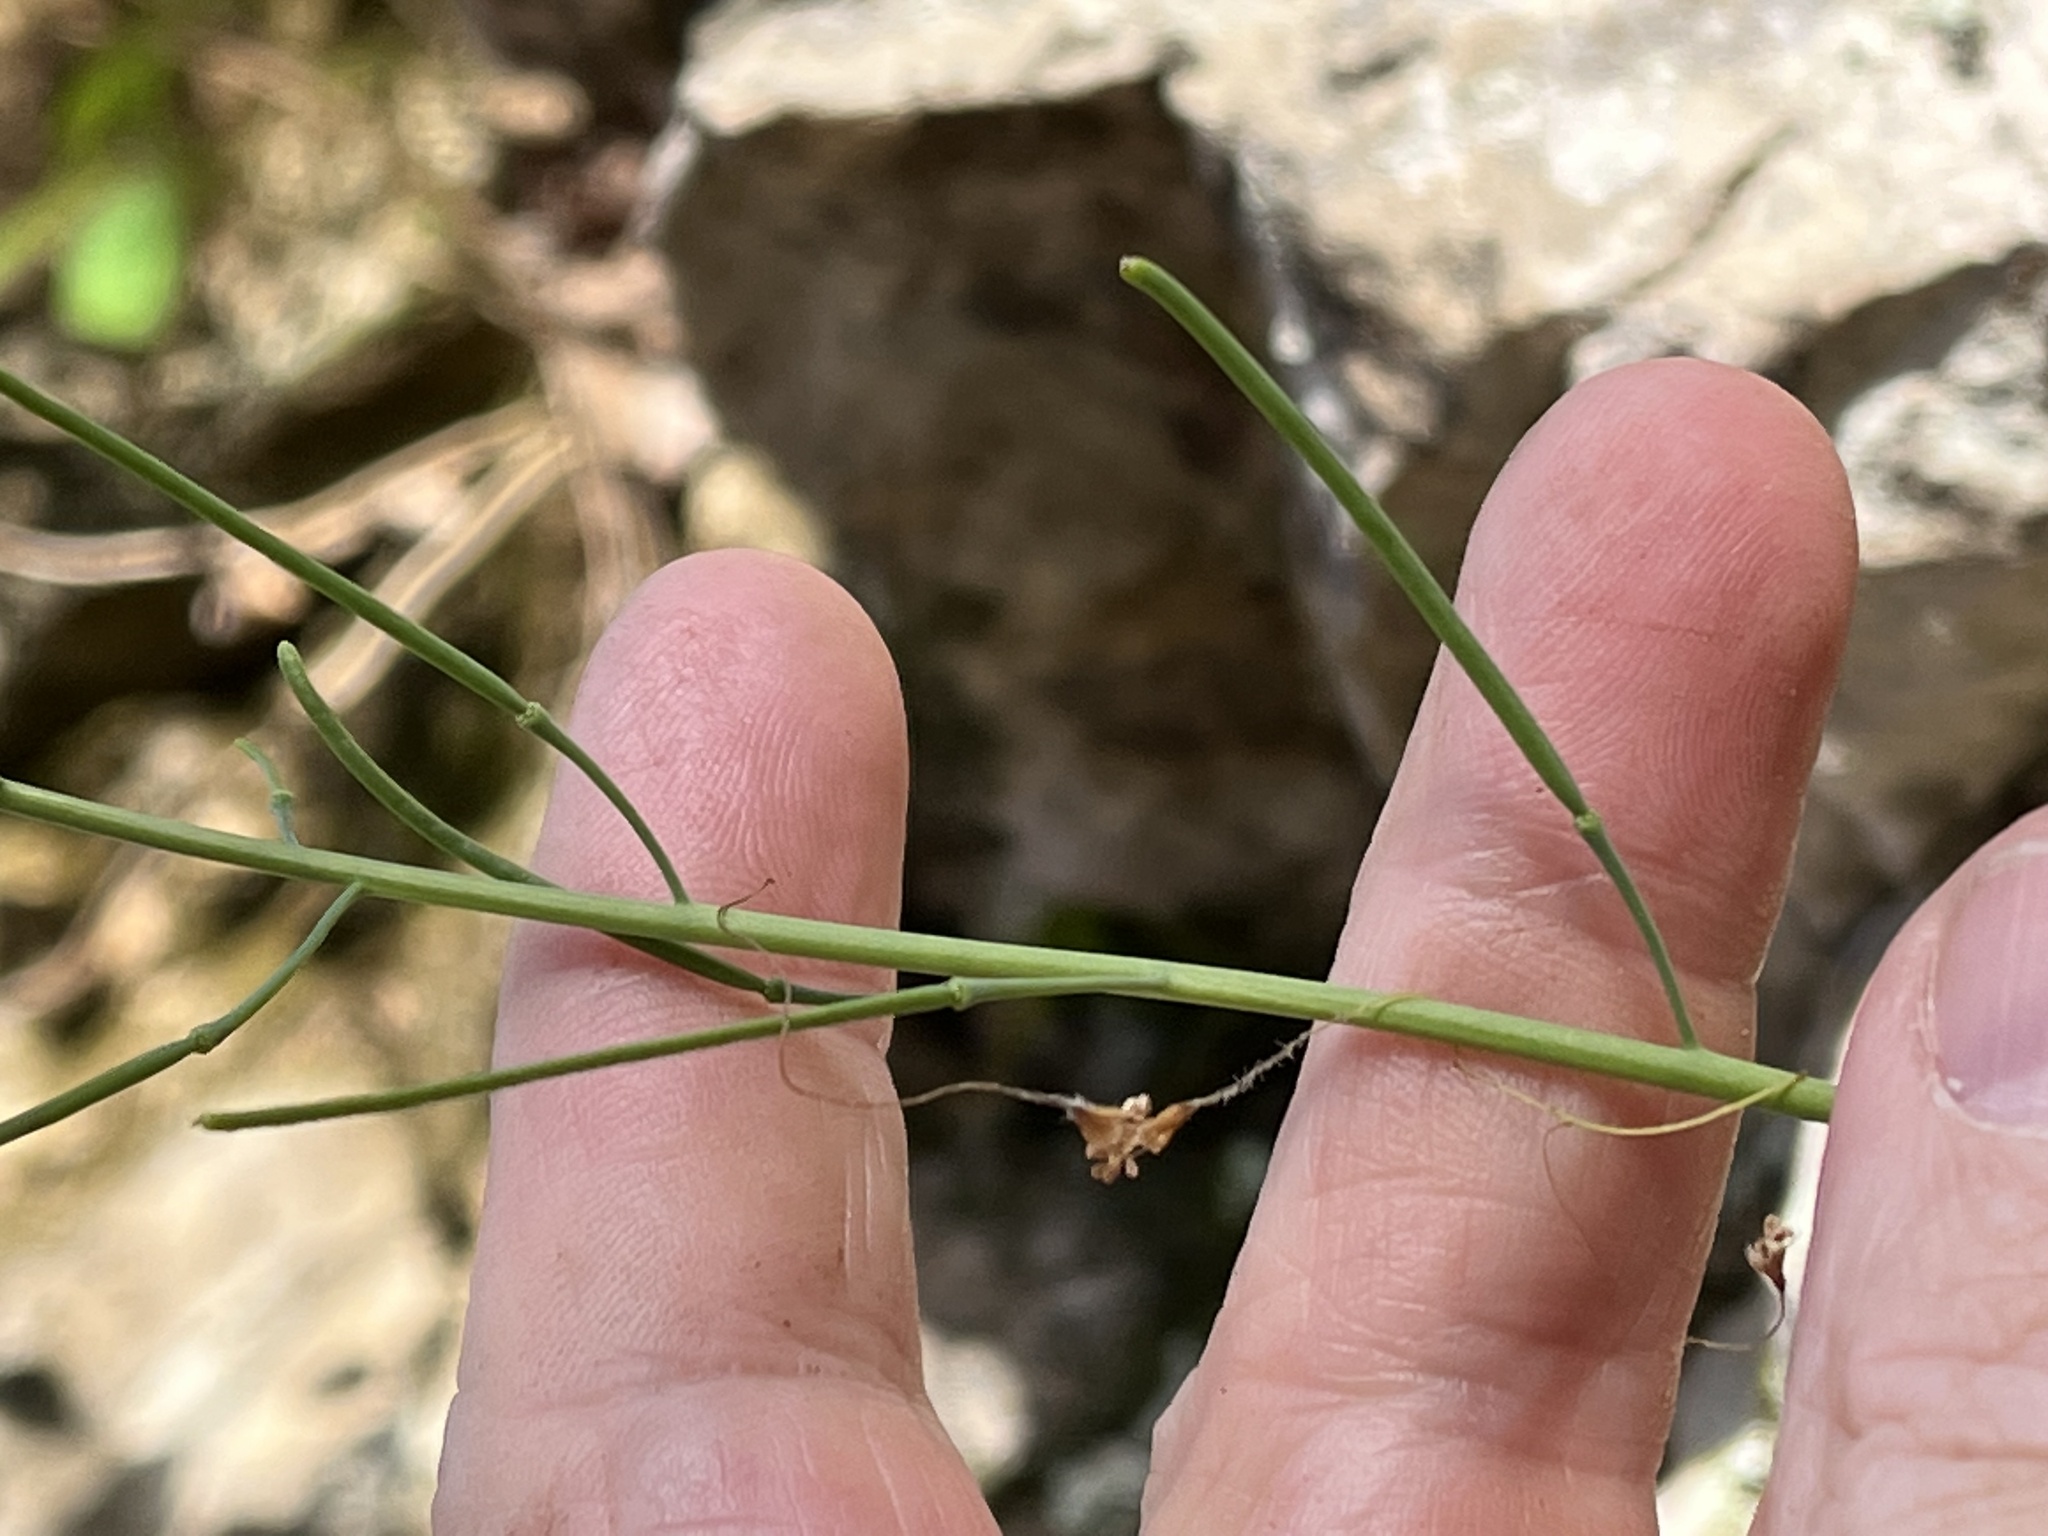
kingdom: Plantae
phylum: Tracheophyta
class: Magnoliopsida
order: Brassicales
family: Brassicaceae
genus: Borodinia
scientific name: Borodinia laevigata
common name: Smooth rockcress
